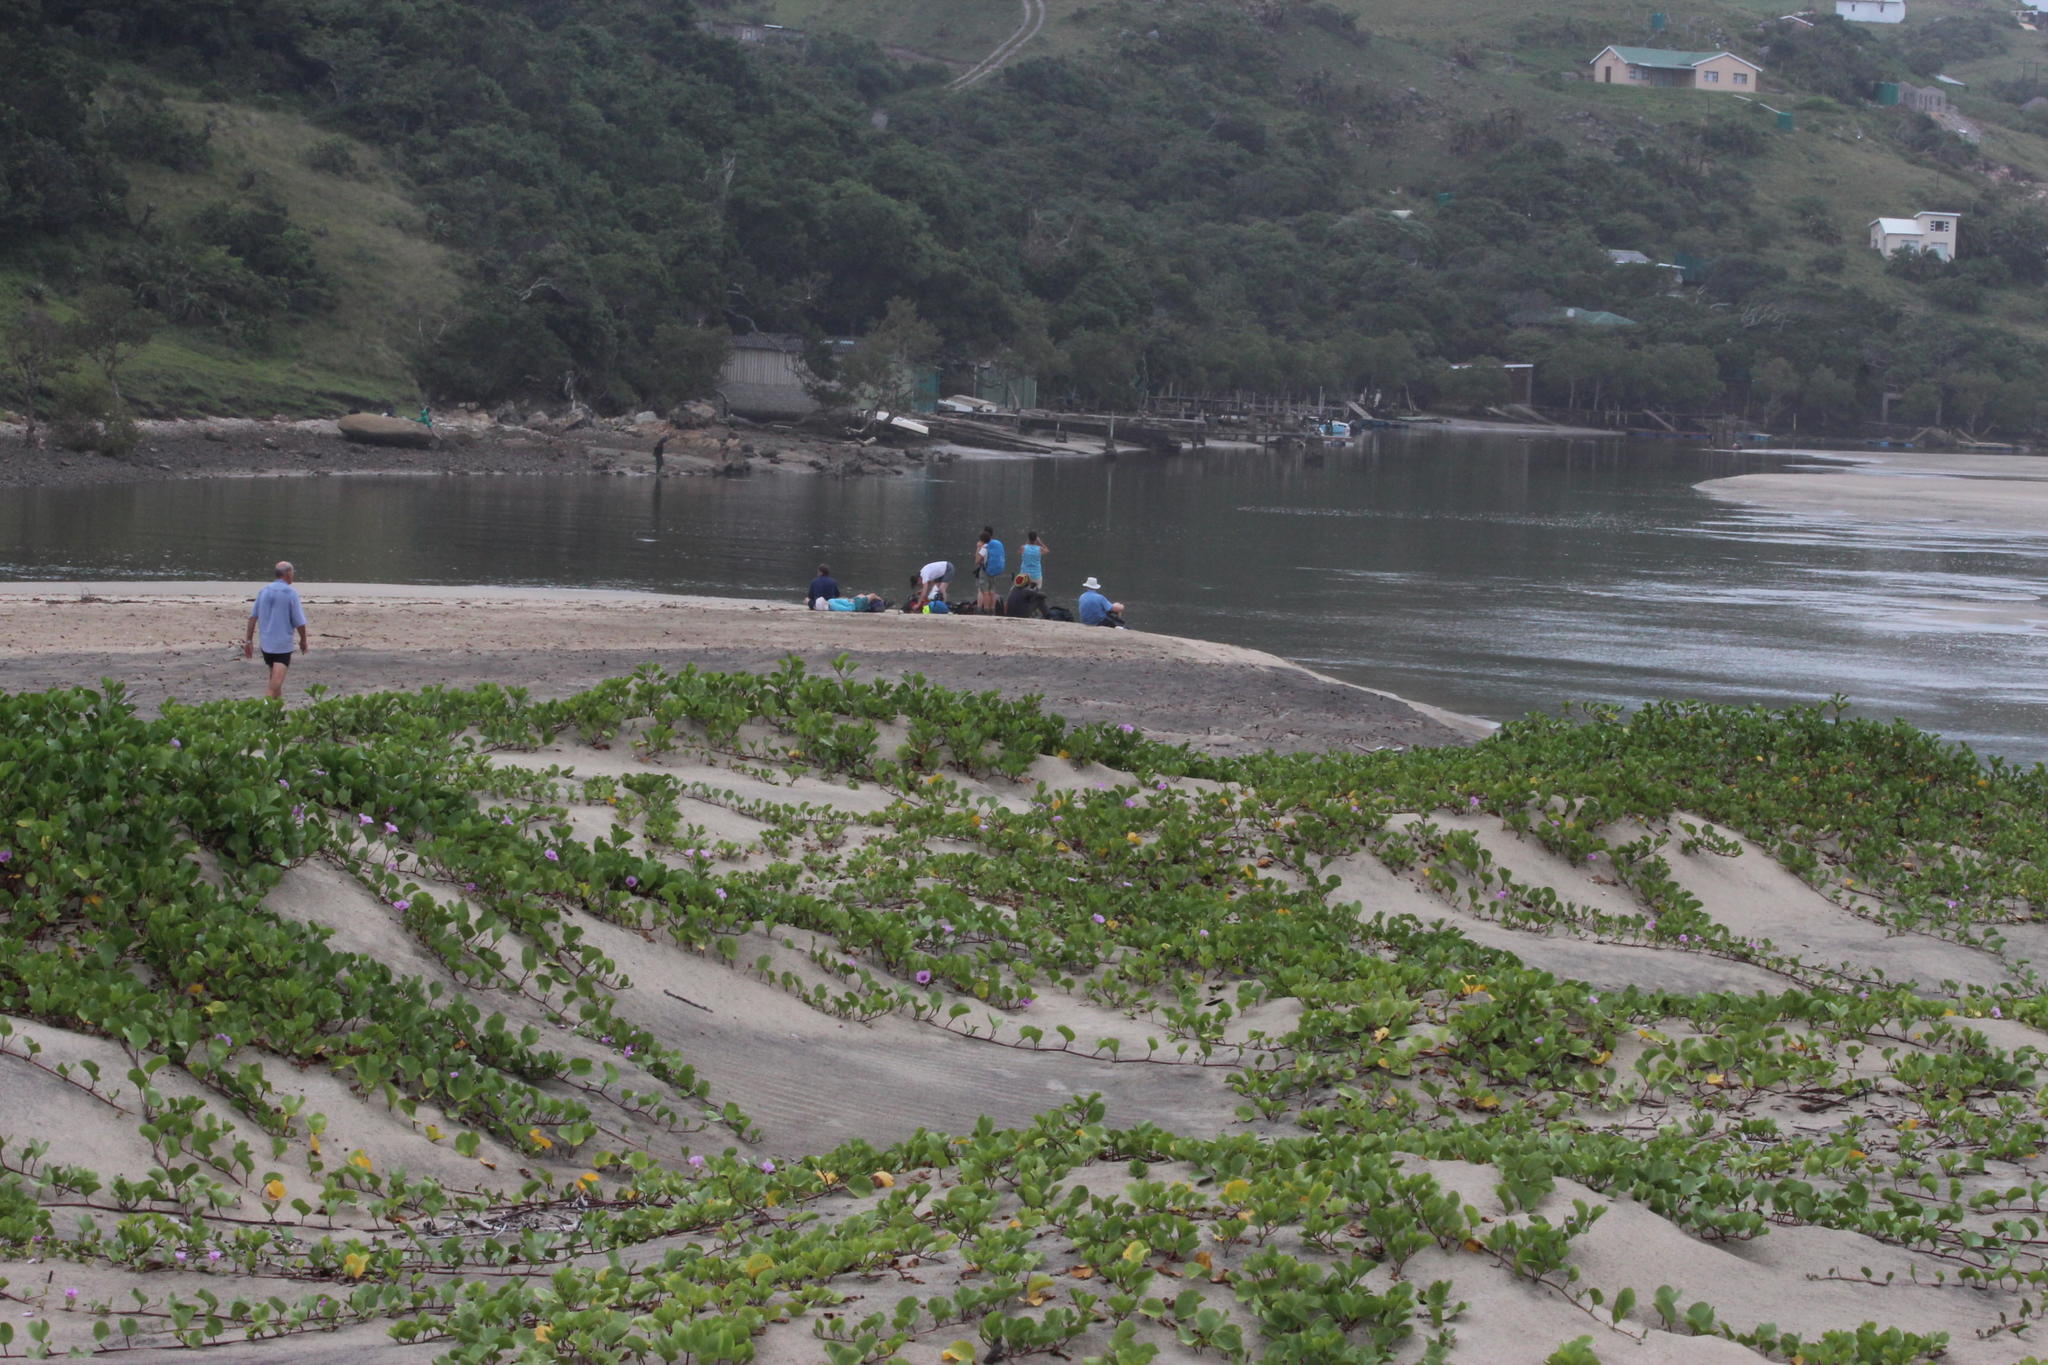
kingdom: Plantae
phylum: Tracheophyta
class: Magnoliopsida
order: Solanales
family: Convolvulaceae
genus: Ipomoea
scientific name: Ipomoea pes-caprae
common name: Beach morning glory
